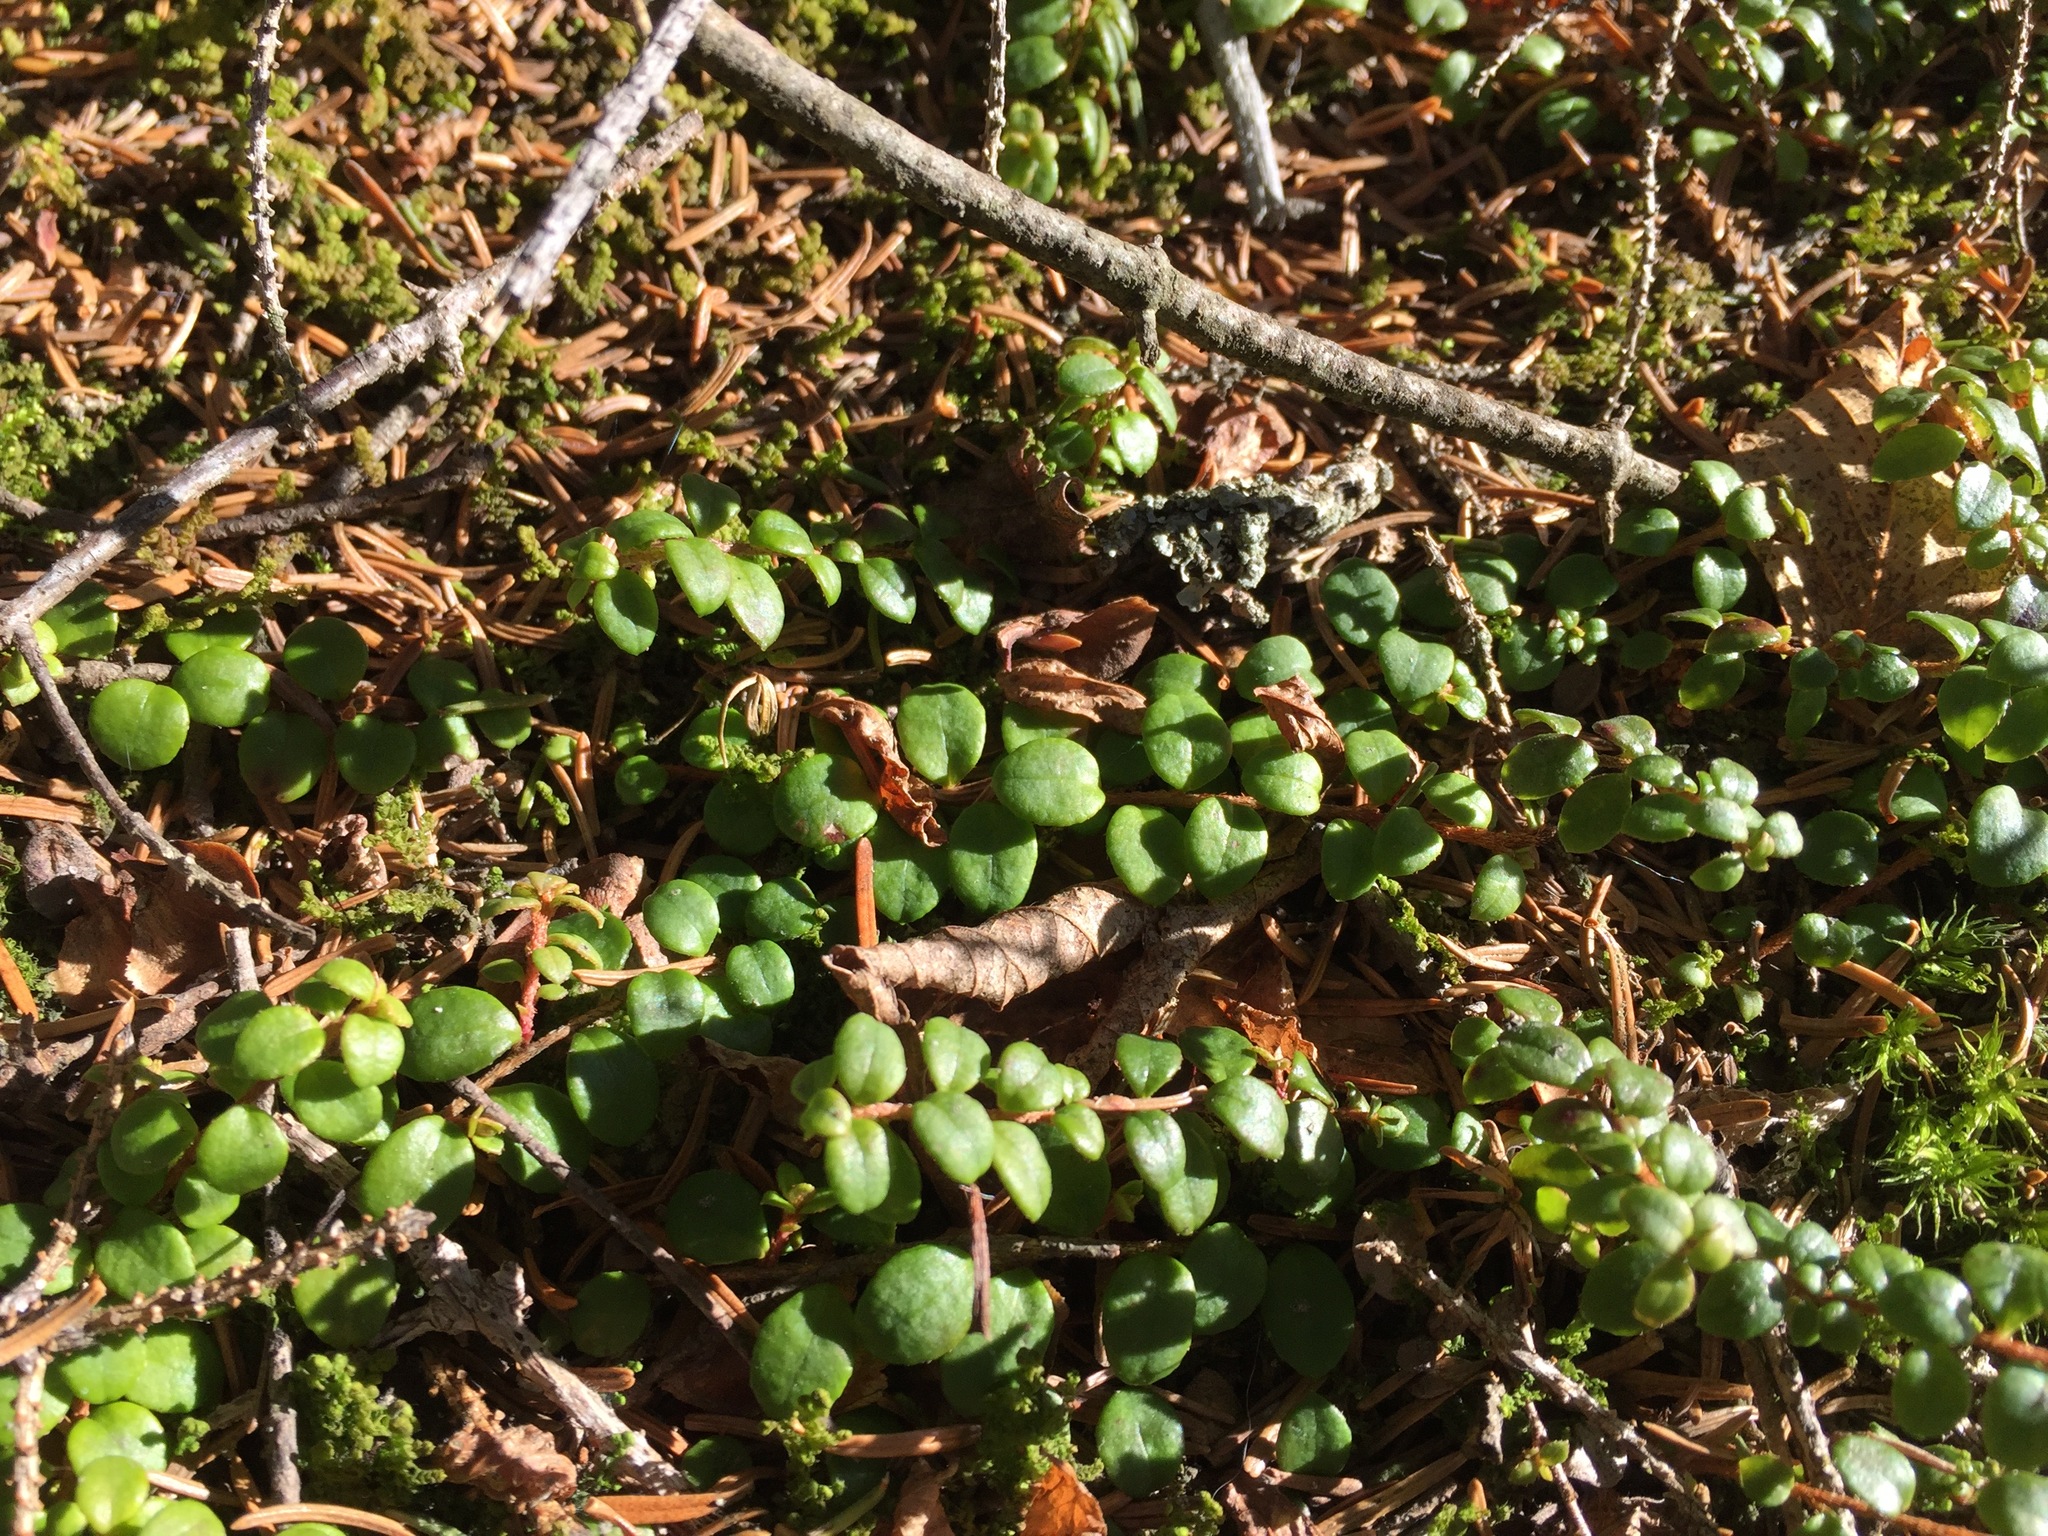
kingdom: Plantae
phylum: Tracheophyta
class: Magnoliopsida
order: Ericales
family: Ericaceae
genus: Gaultheria
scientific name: Gaultheria hispidula
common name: Cancer wintergreen
